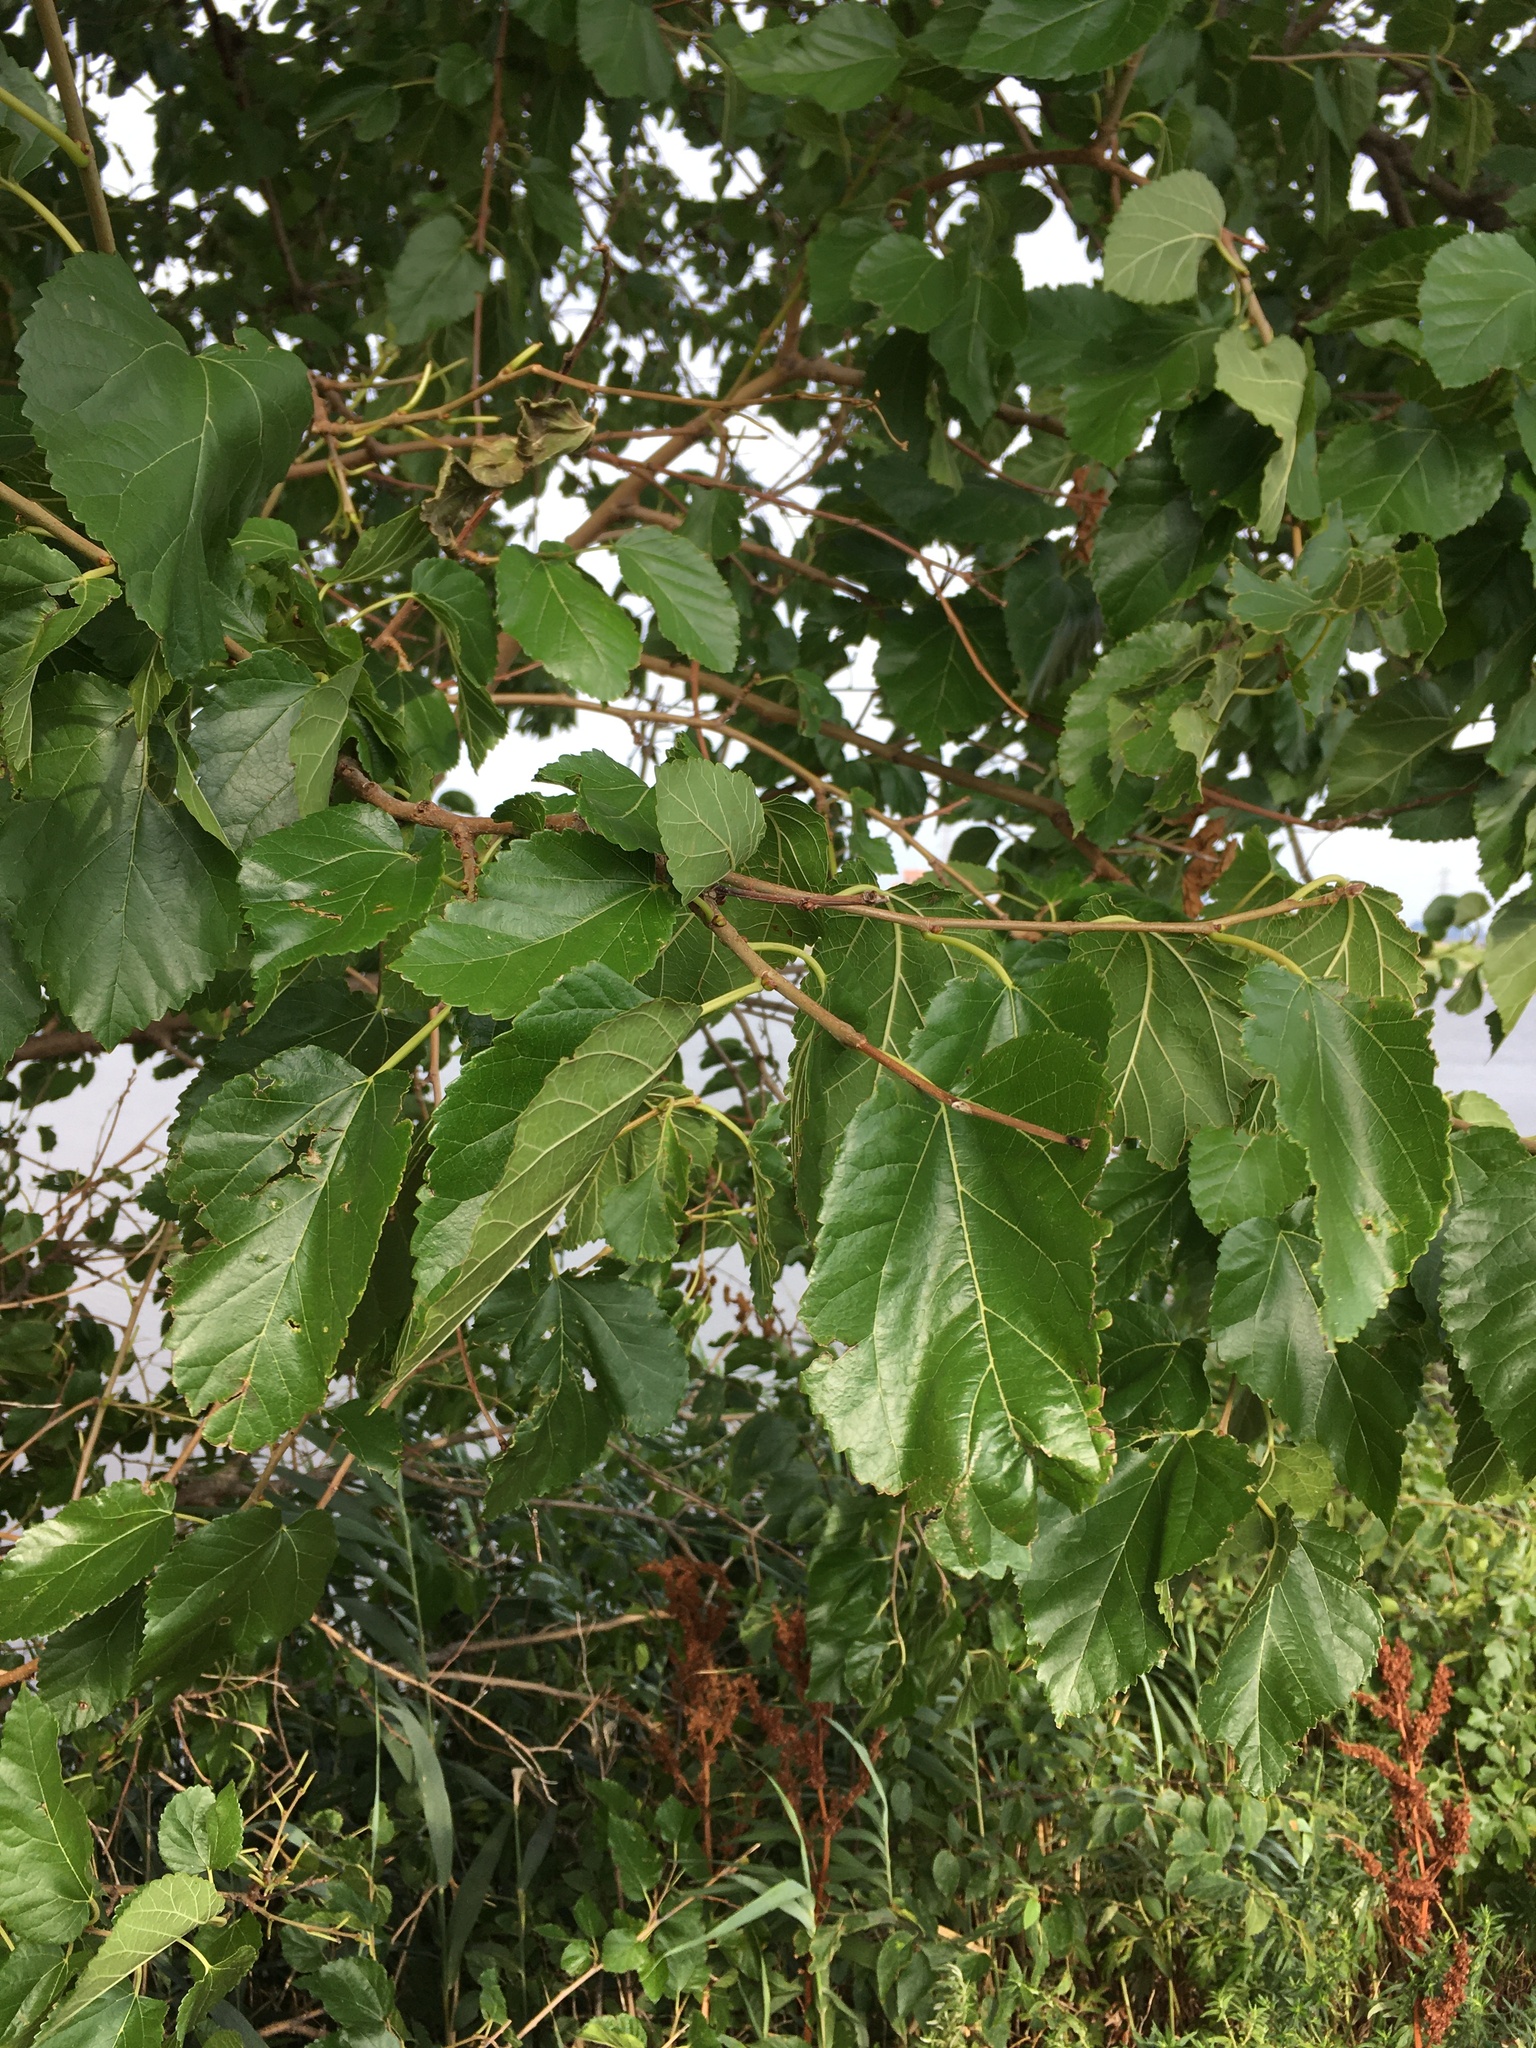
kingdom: Plantae
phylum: Tracheophyta
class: Magnoliopsida
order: Rosales
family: Moraceae
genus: Morus
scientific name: Morus alba
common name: White mulberry
